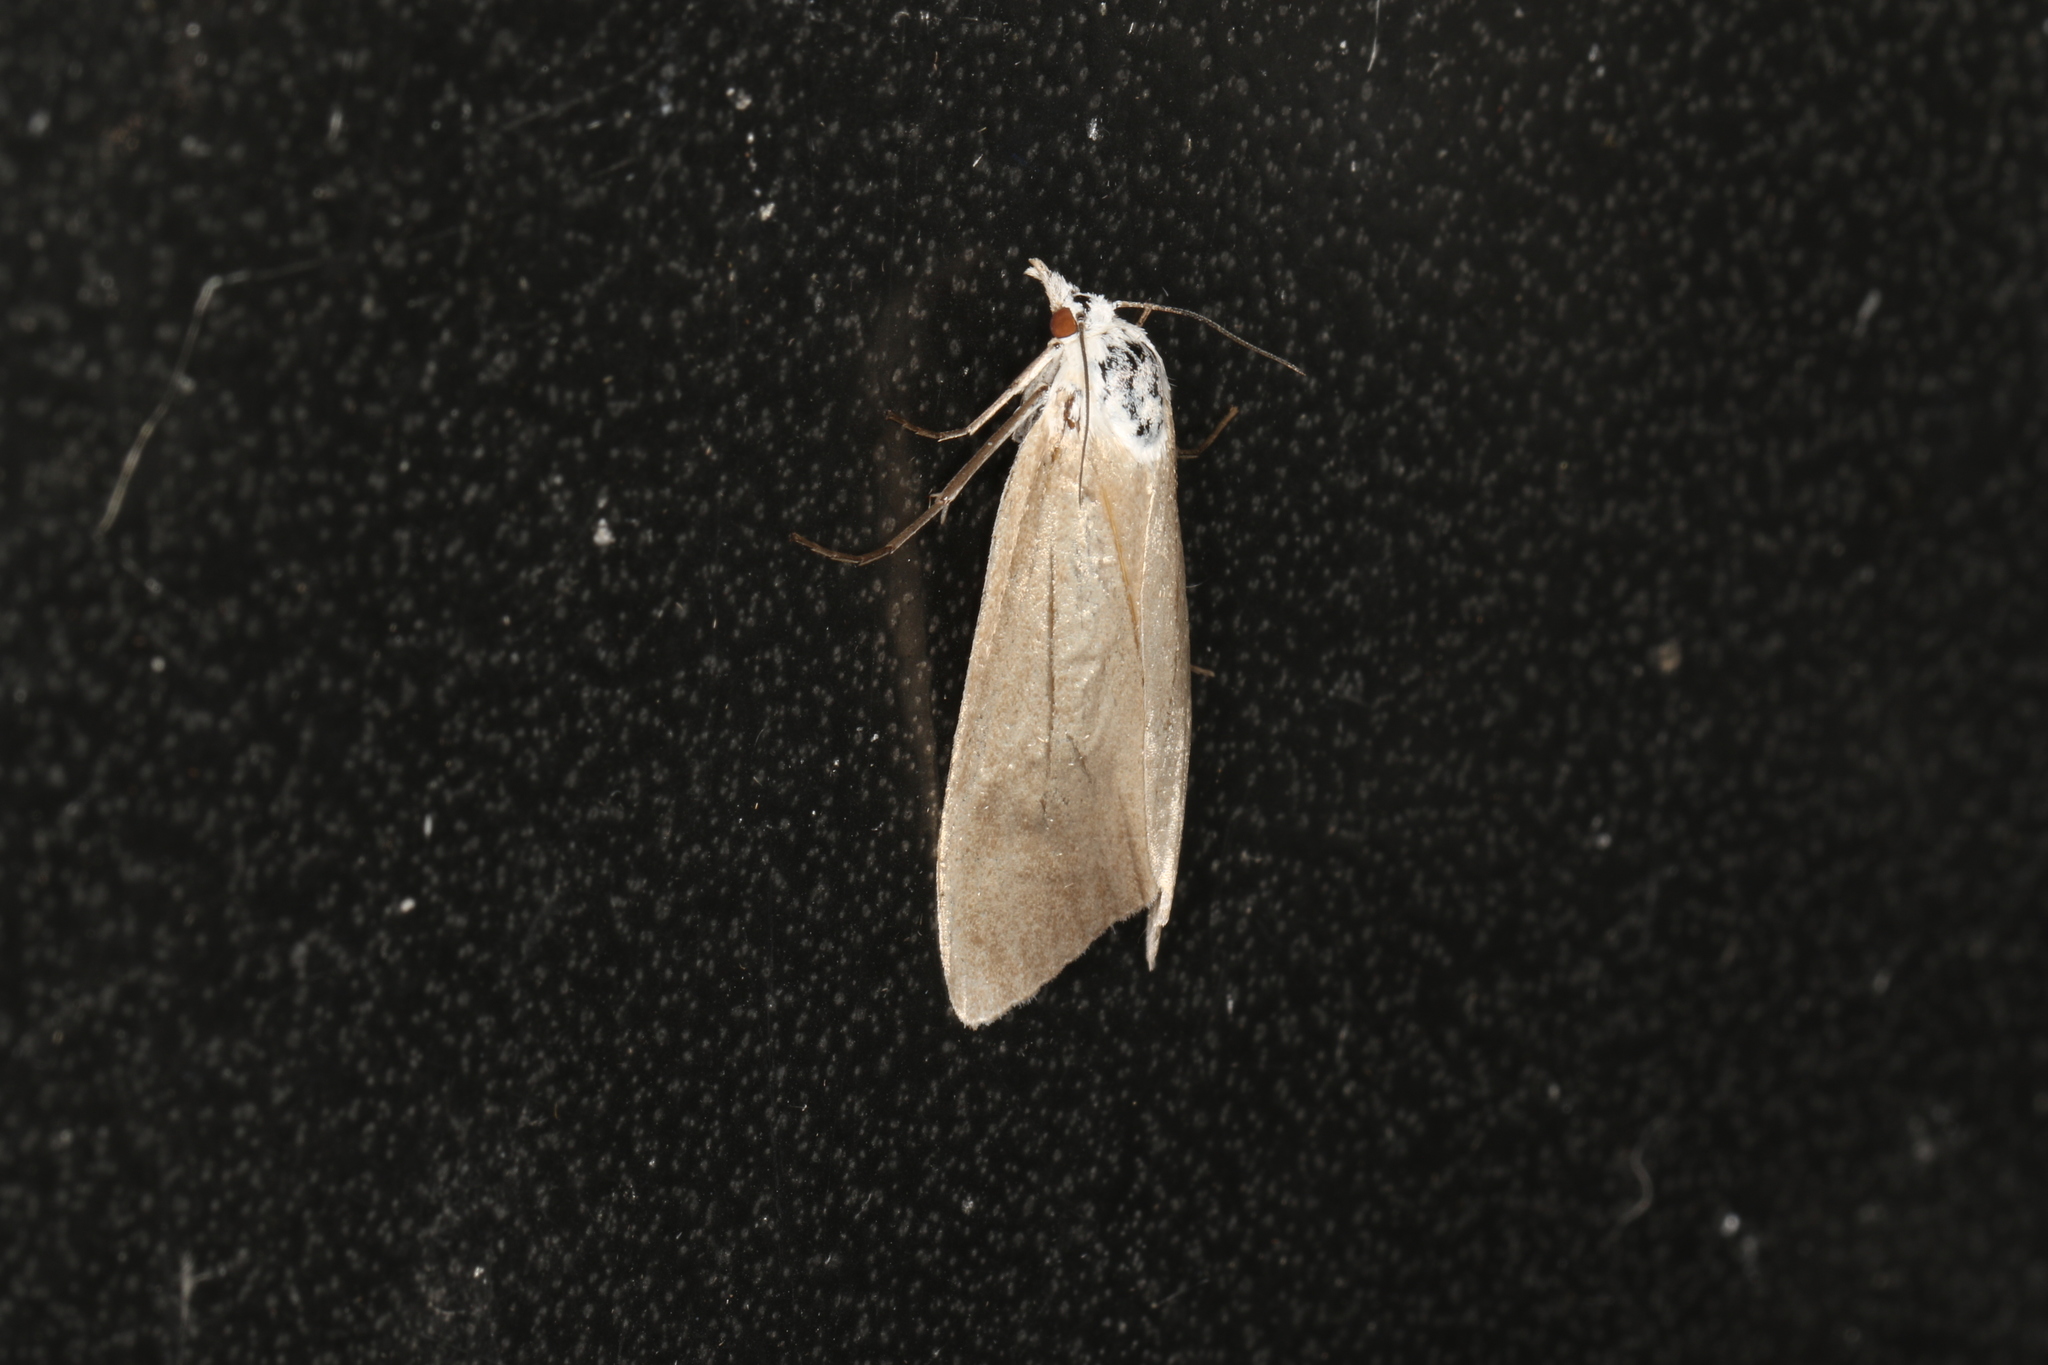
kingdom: Animalia
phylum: Arthropoda
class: Insecta
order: Lepidoptera
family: Crambidae
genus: Scirpophaga
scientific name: Scirpophaga imparellus
